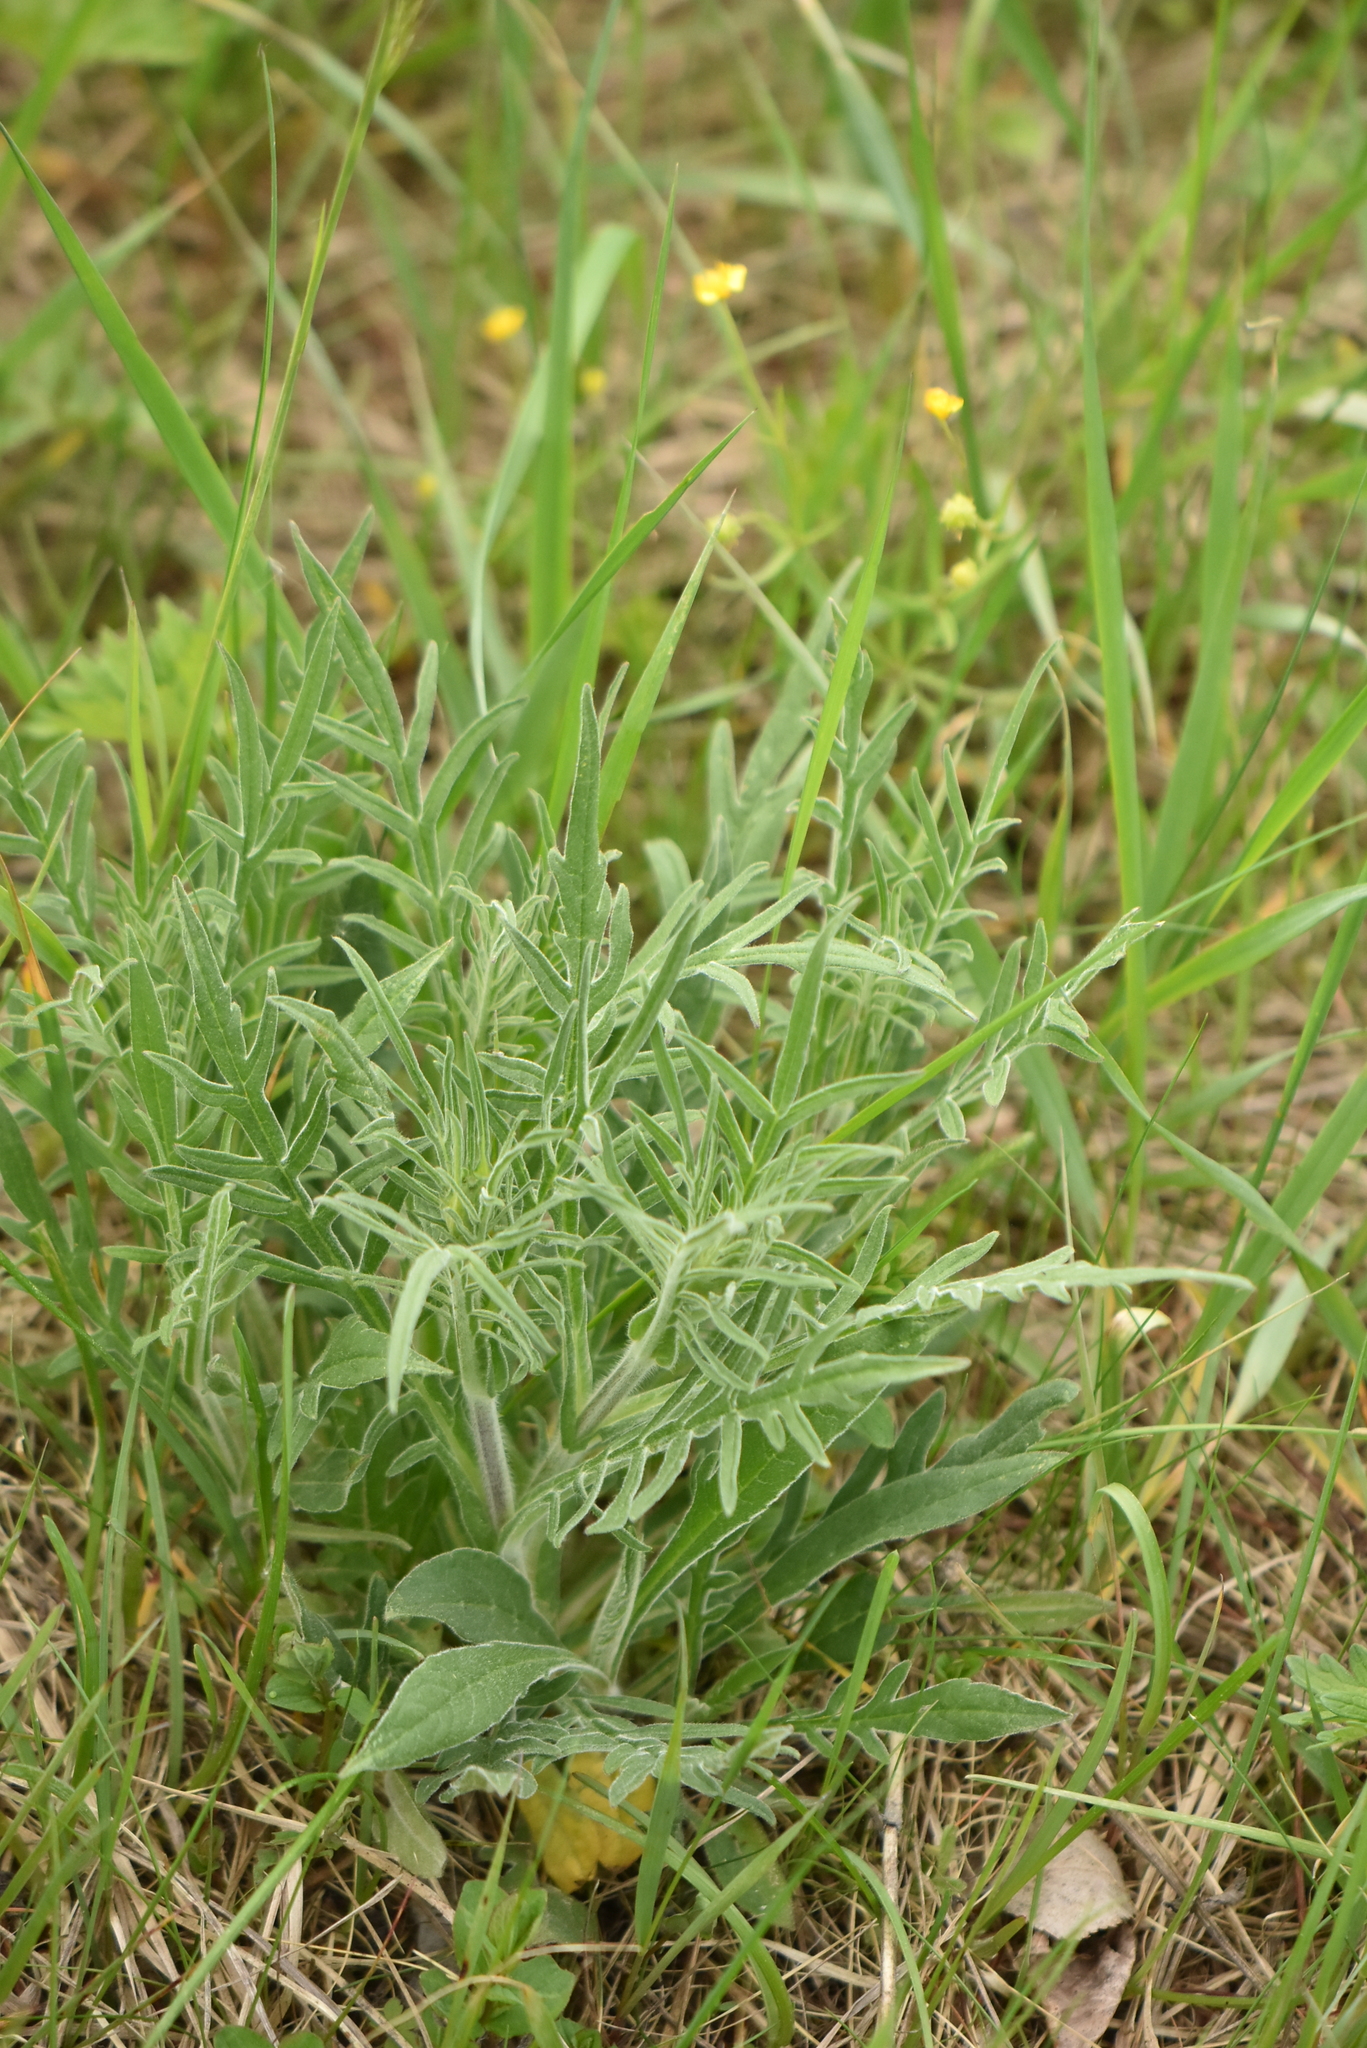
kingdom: Plantae
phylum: Tracheophyta
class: Magnoliopsida
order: Dipsacales
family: Caprifoliaceae
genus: Knautia
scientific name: Knautia arvensis
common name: Field scabiosa
